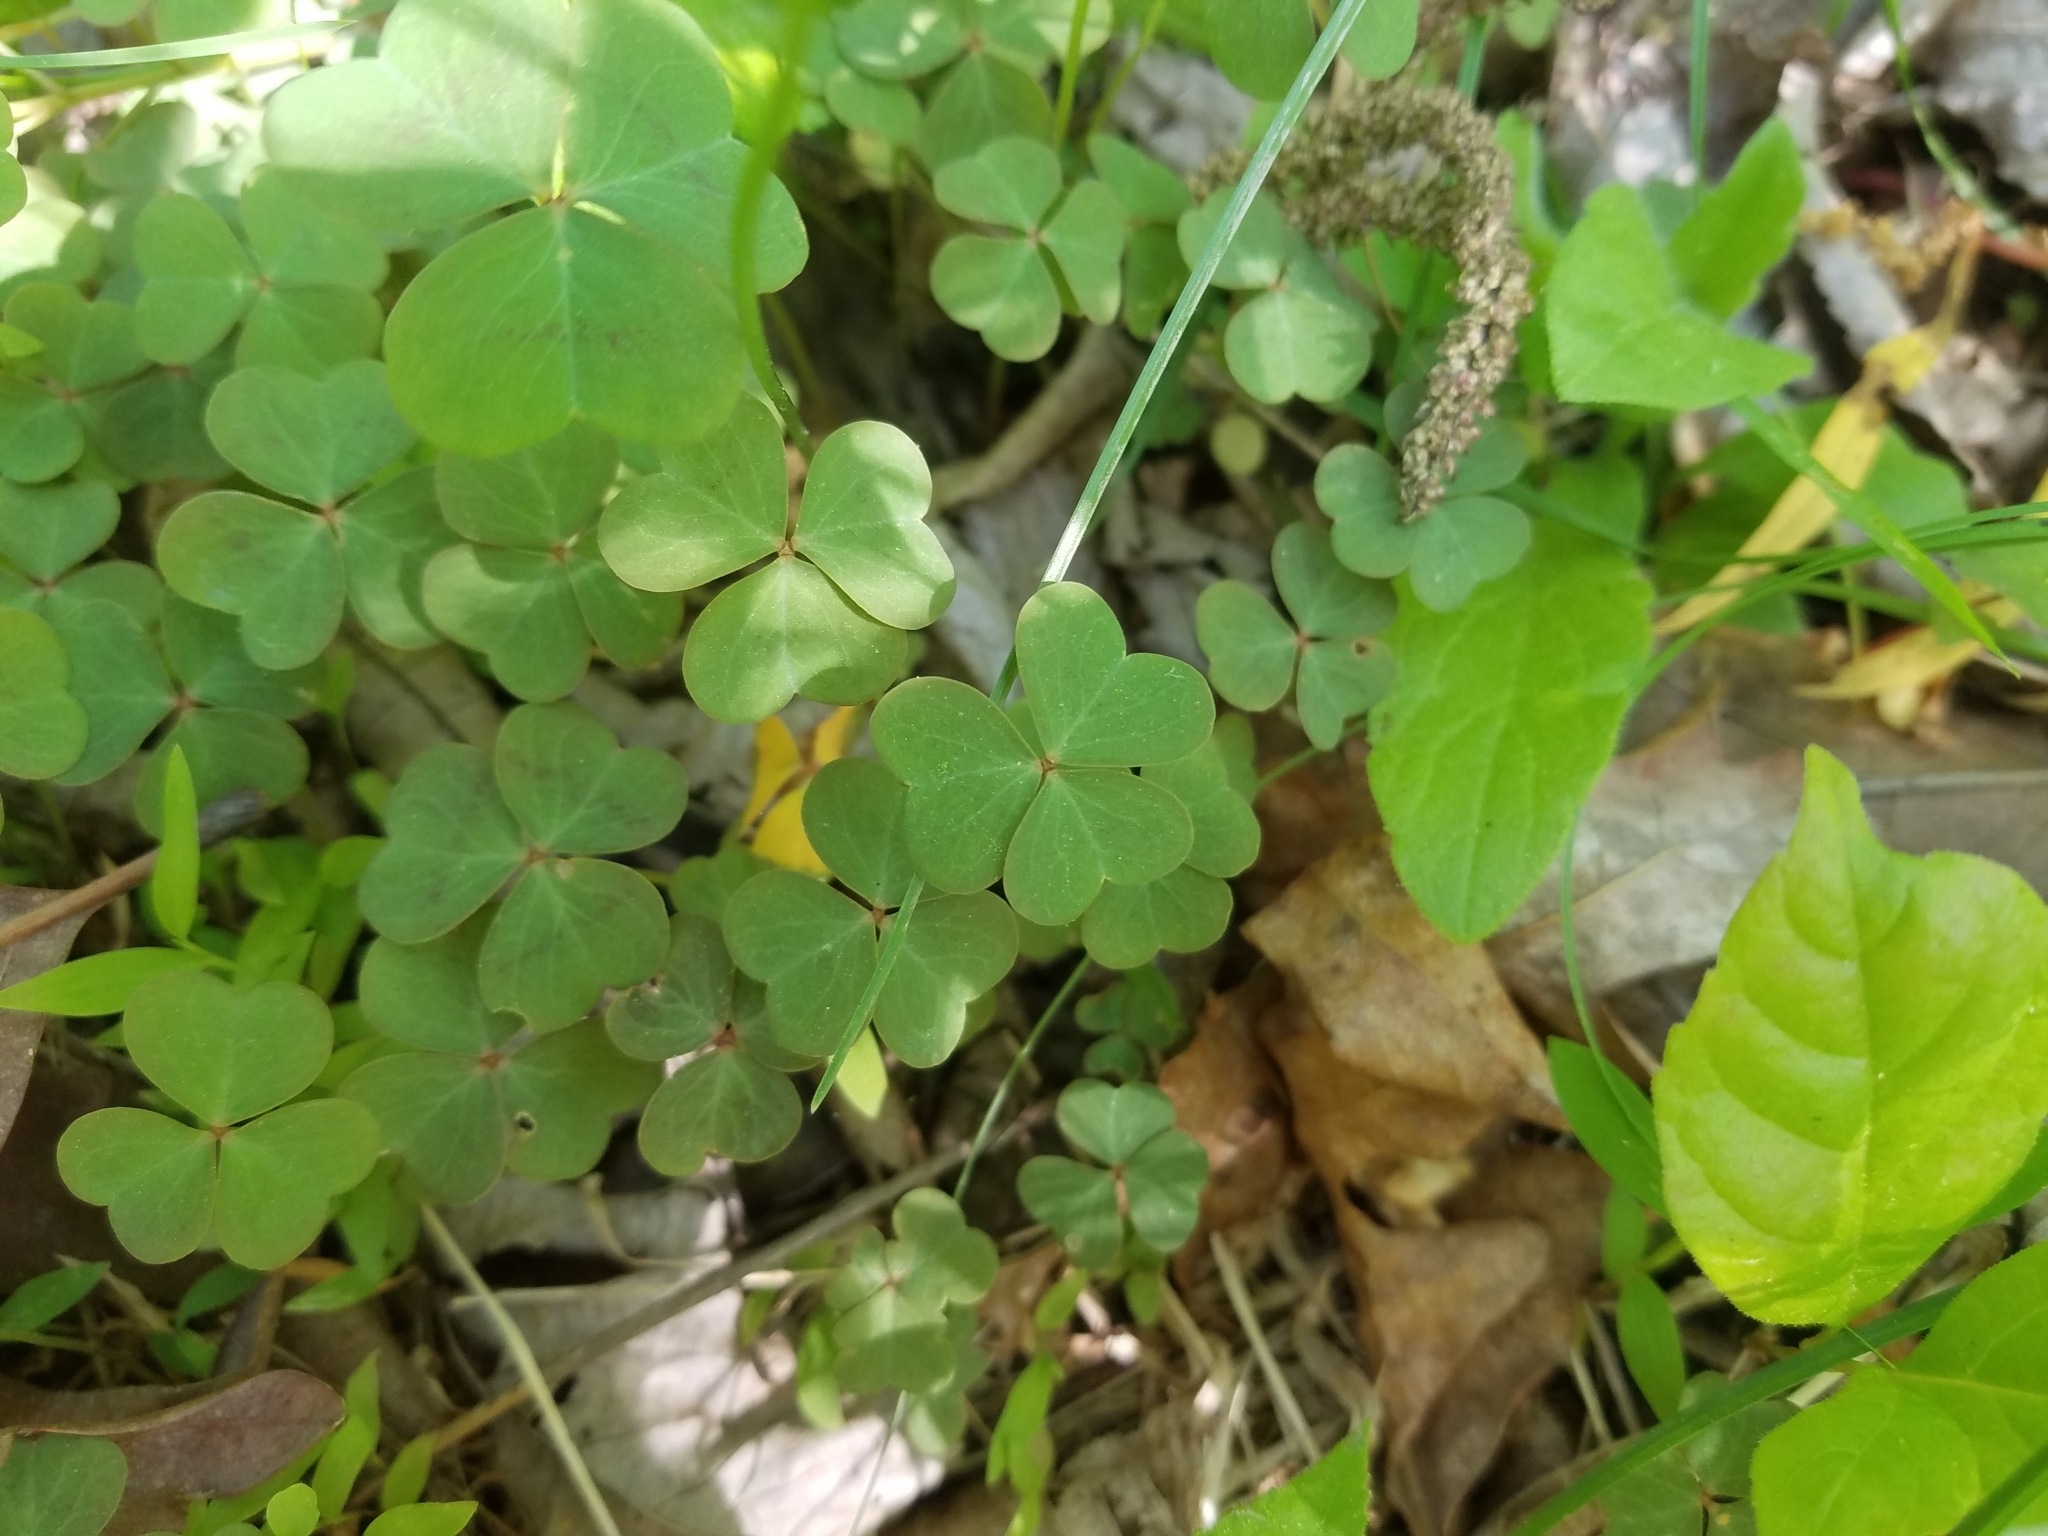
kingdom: Plantae
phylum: Tracheophyta
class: Magnoliopsida
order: Oxalidales
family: Oxalidaceae
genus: Oxalis
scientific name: Oxalis violacea
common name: Violet wood-sorrel
